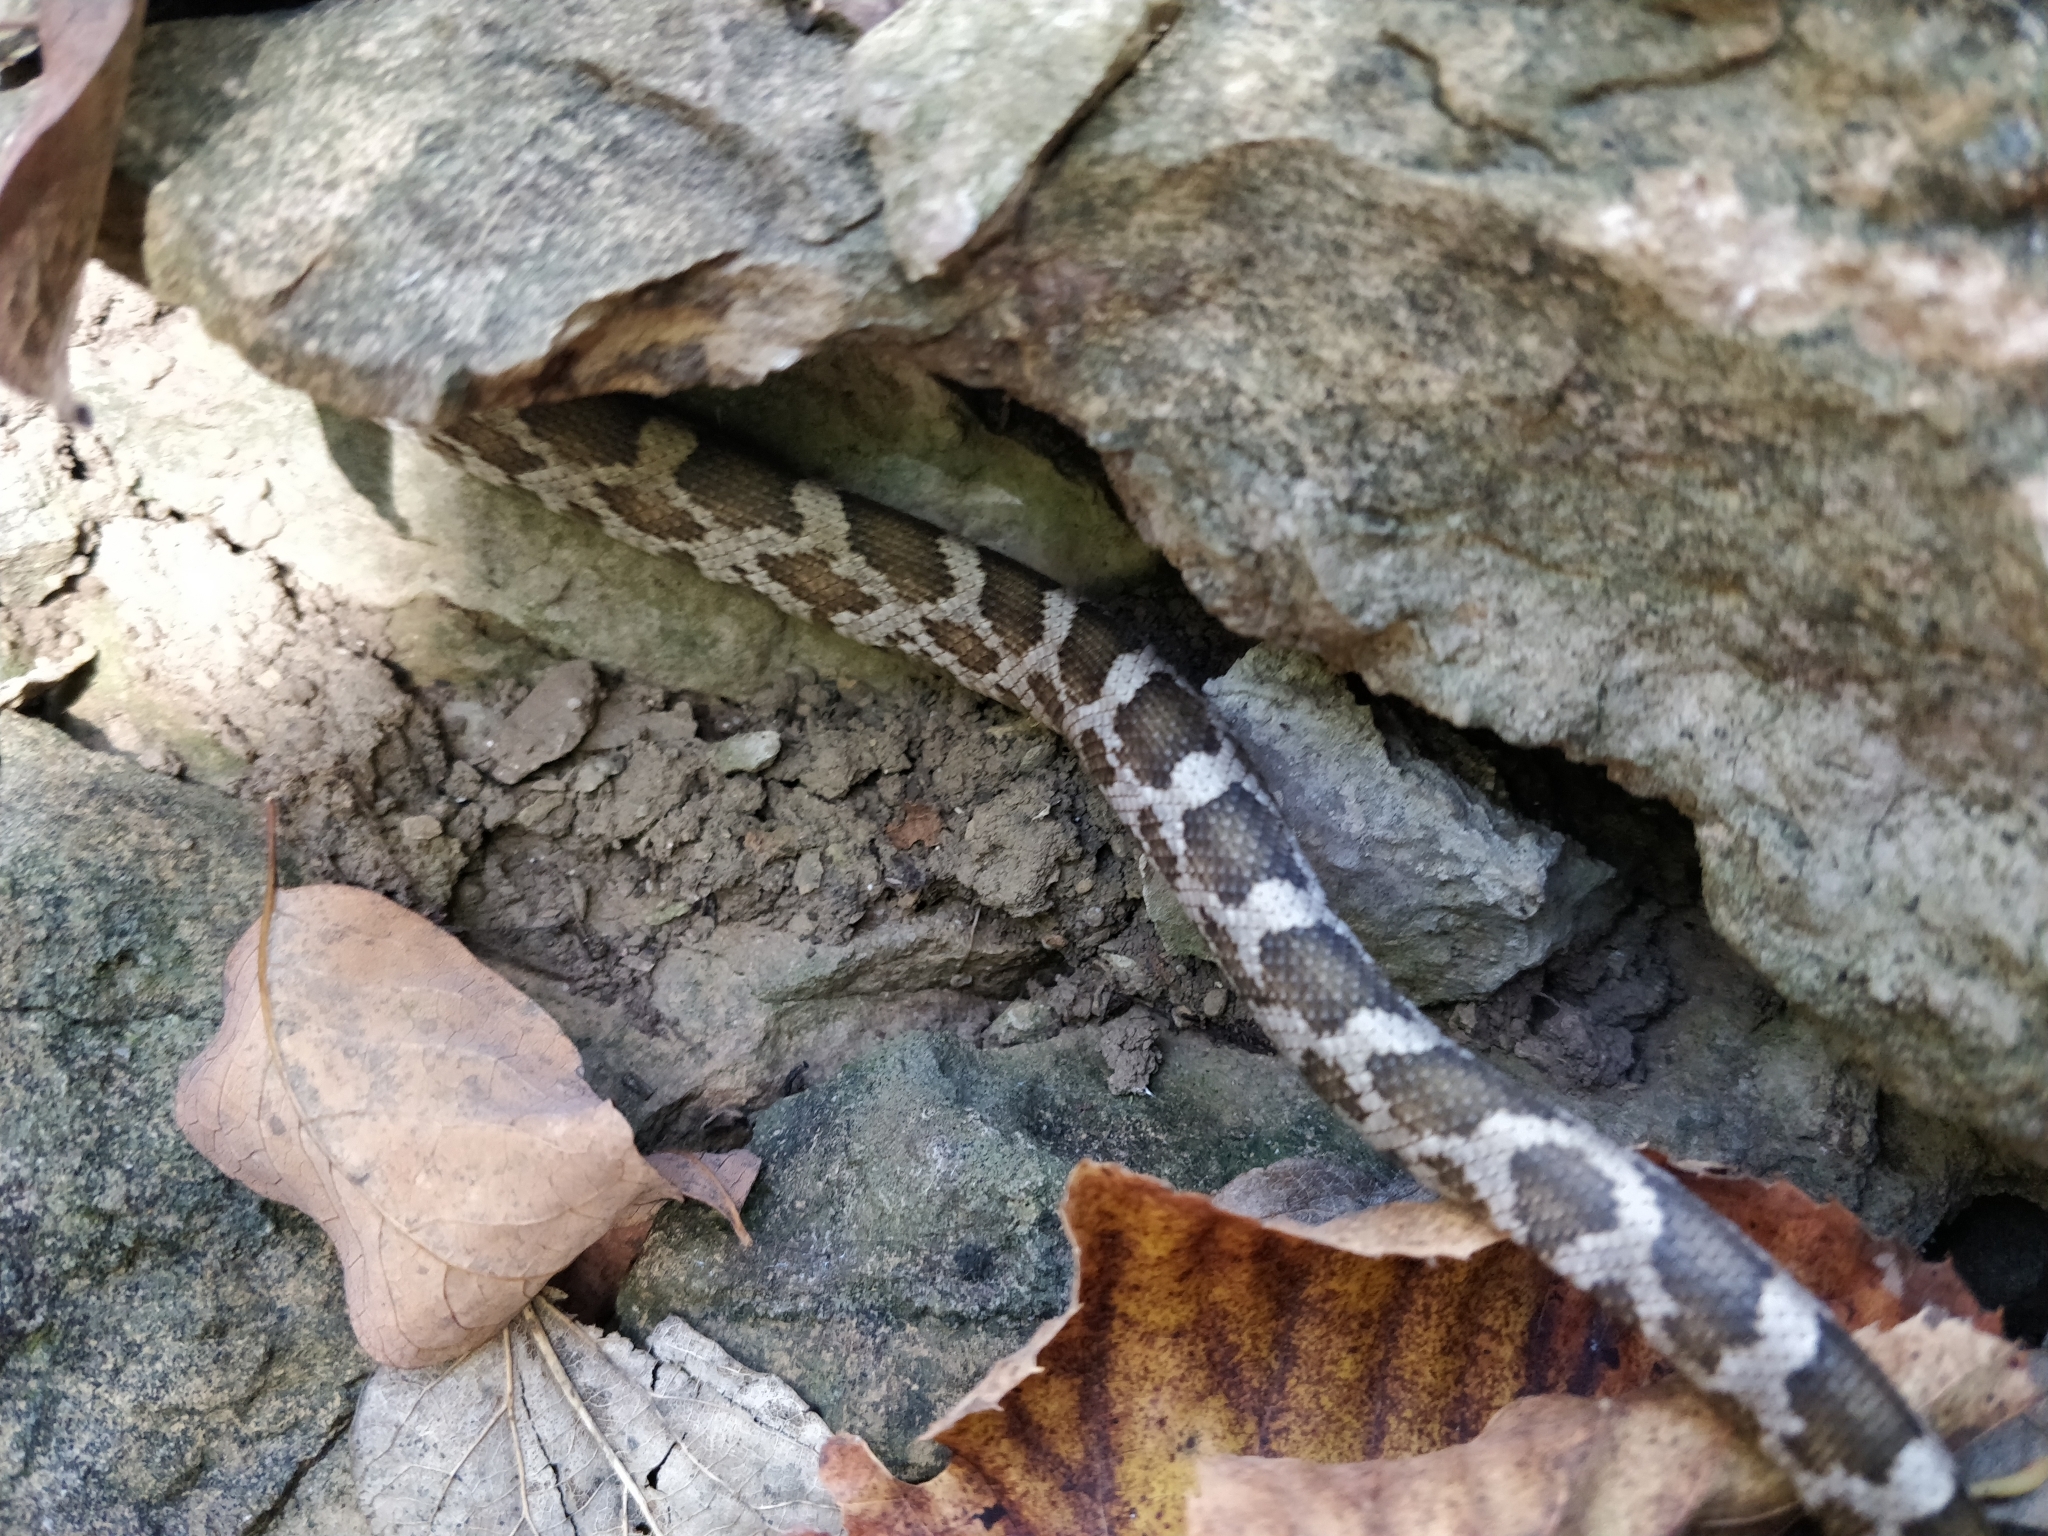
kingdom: Animalia
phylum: Chordata
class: Squamata
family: Colubridae
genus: Pantherophis
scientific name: Pantherophis obsoletus
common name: Black rat snake
